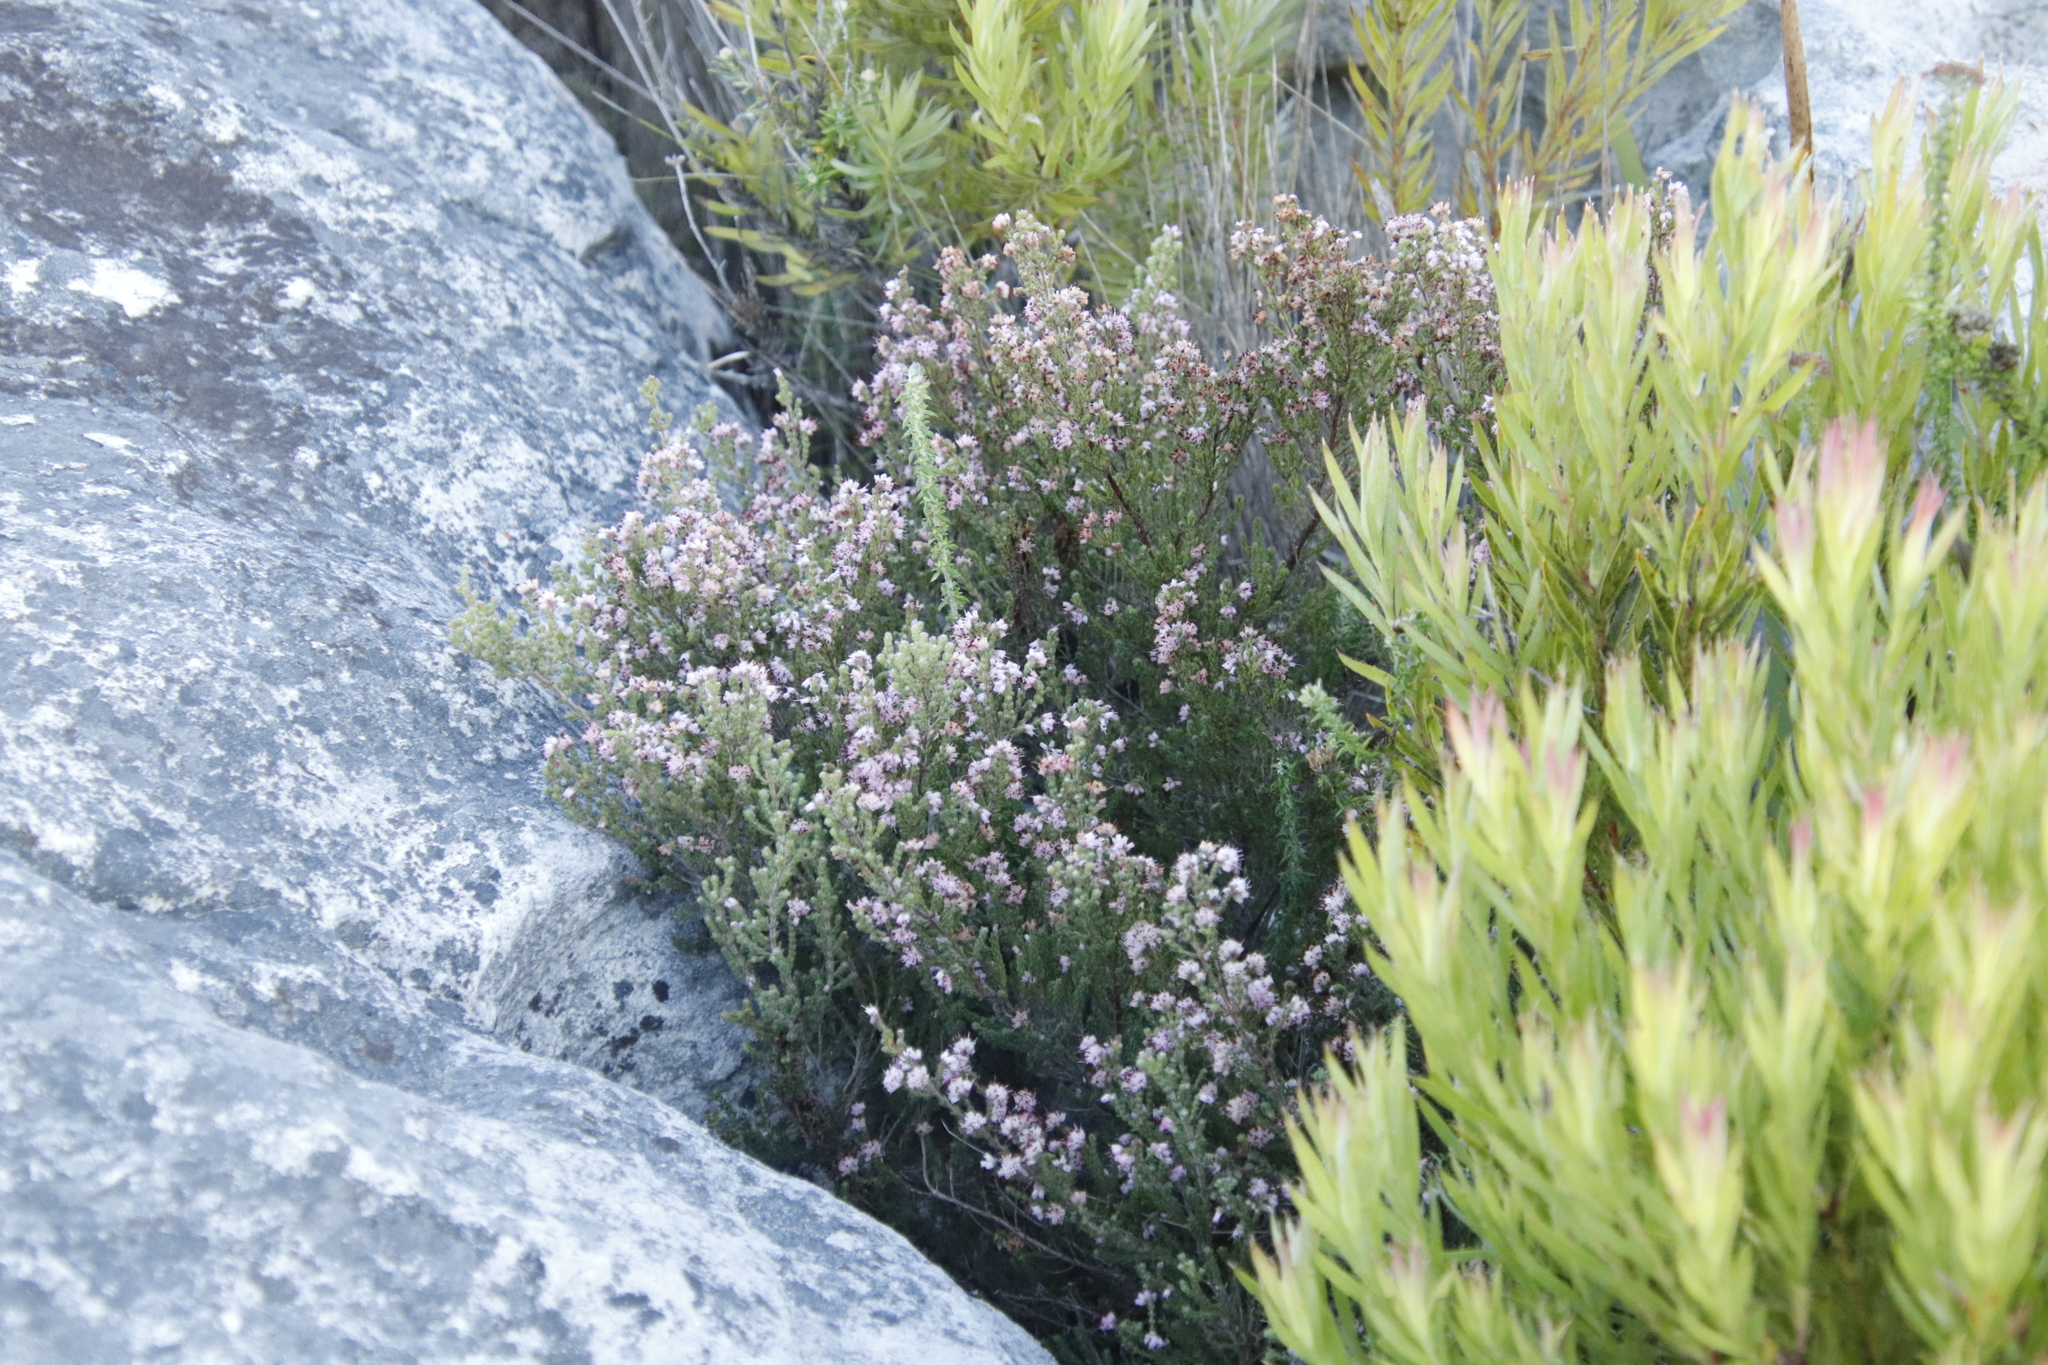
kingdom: Plantae
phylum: Tracheophyta
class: Magnoliopsida
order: Ericales
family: Ericaceae
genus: Erica
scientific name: Erica ericoides
